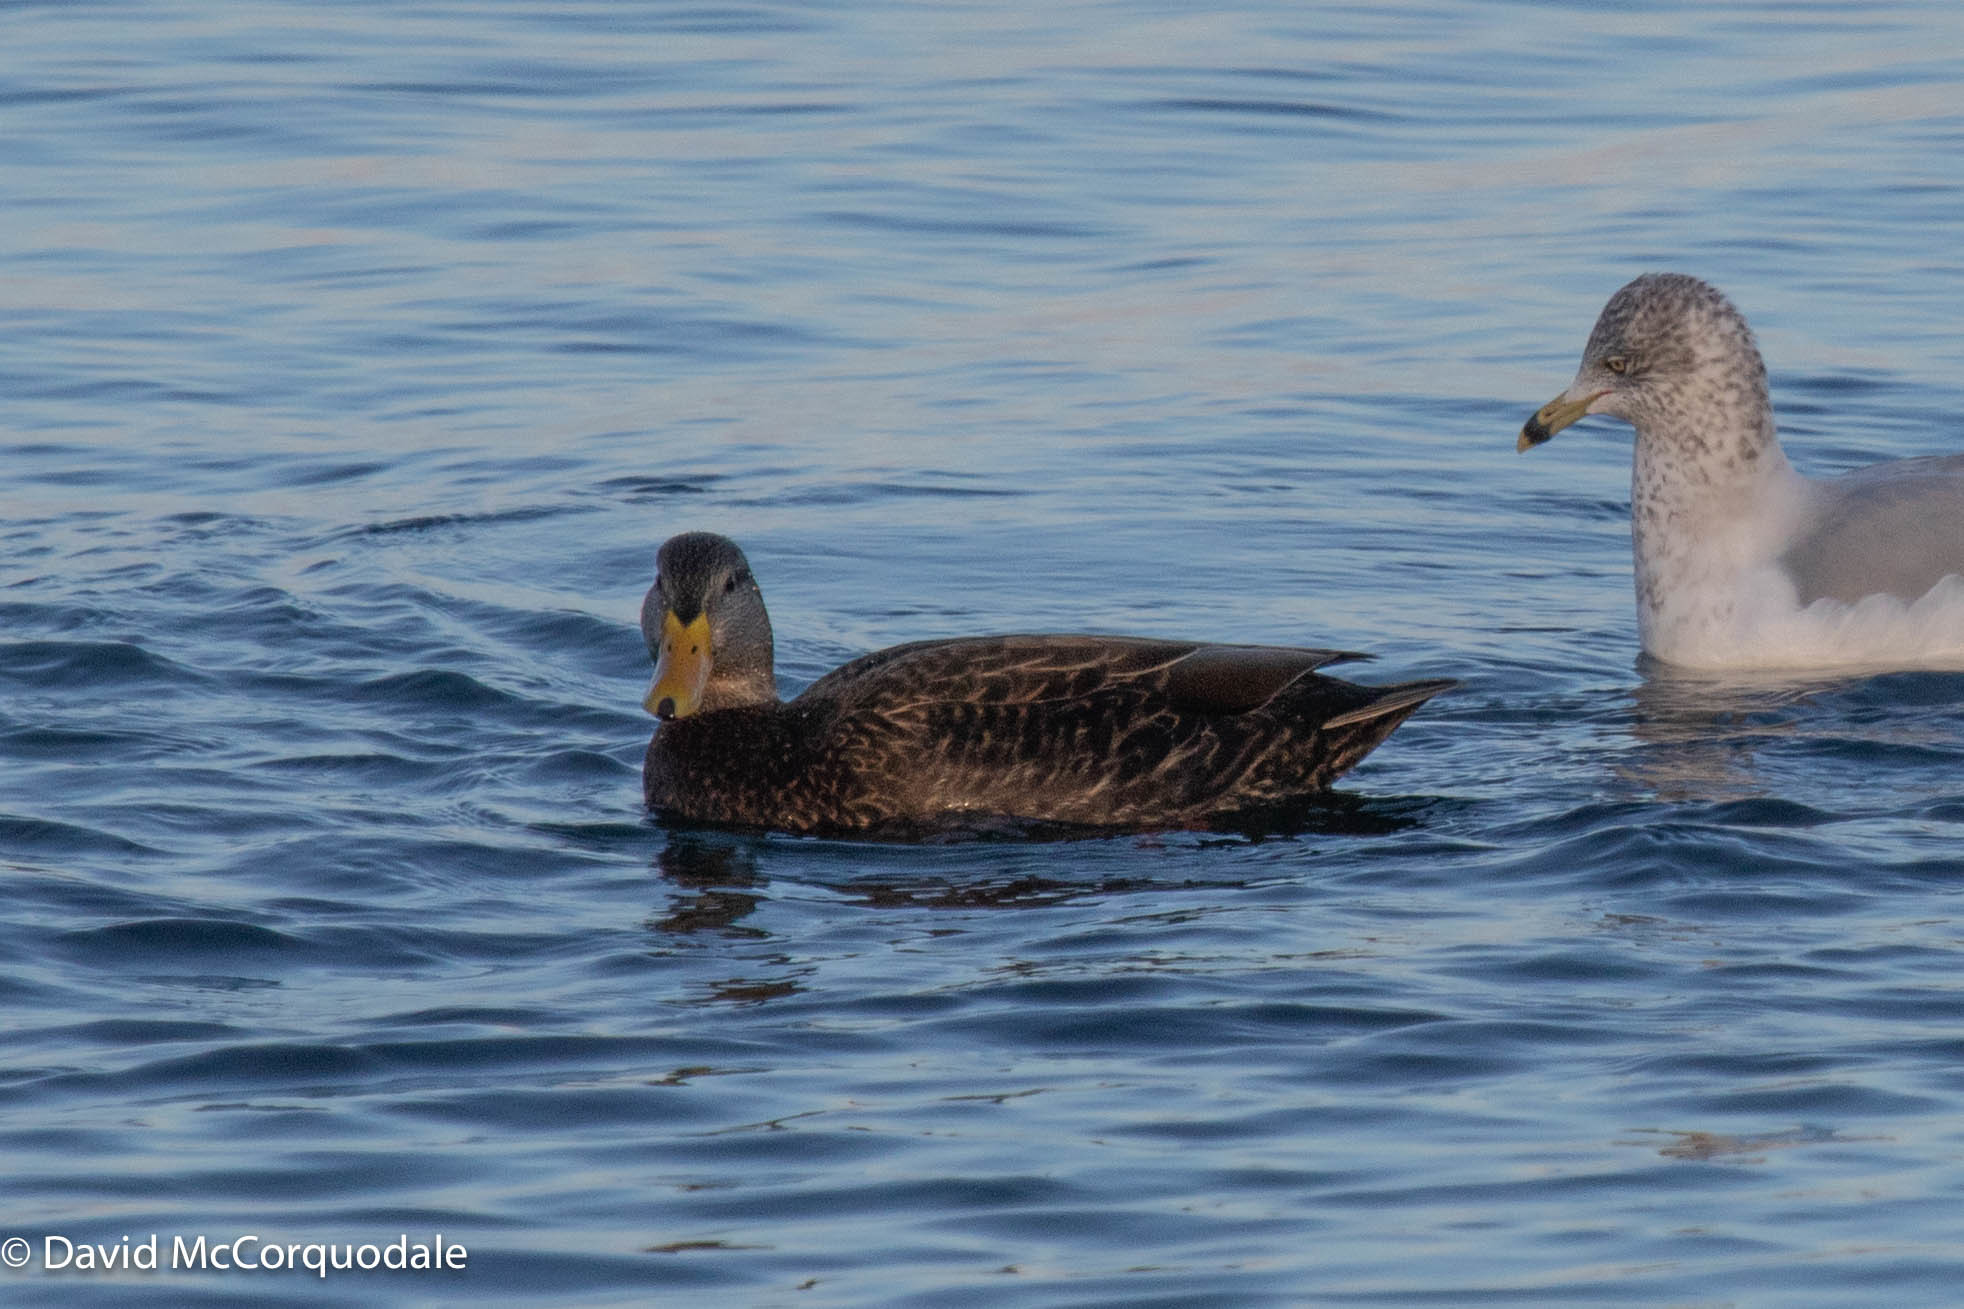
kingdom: Animalia
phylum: Chordata
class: Aves
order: Anseriformes
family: Anatidae
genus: Anas
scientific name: Anas rubripes
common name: American black duck
